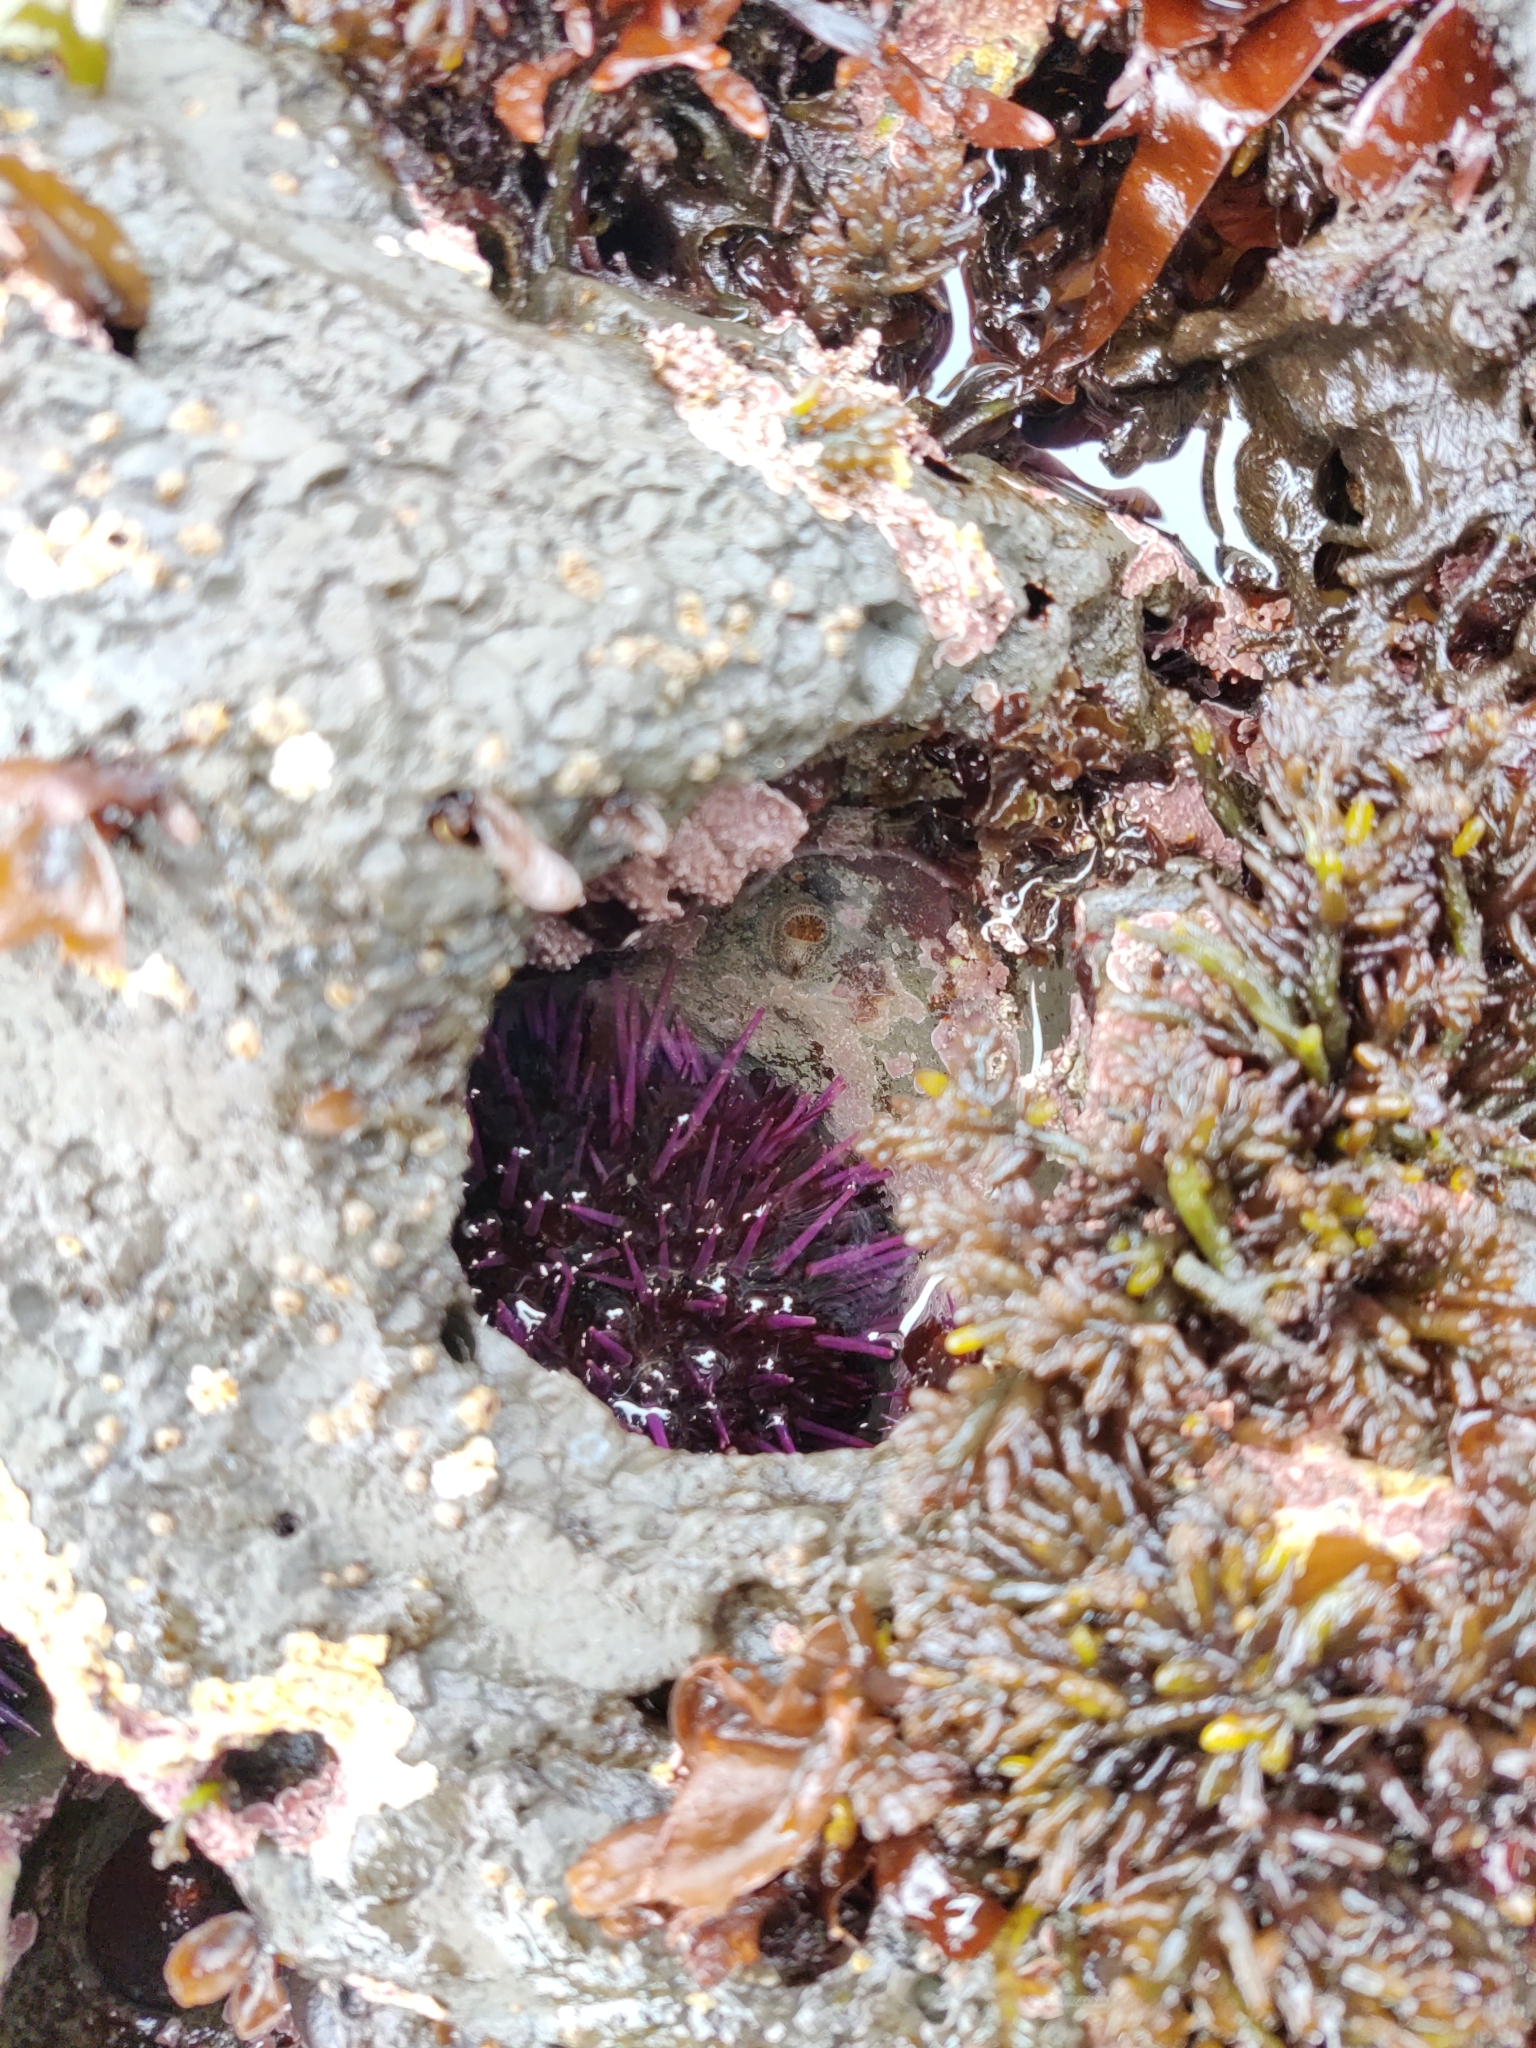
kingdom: Animalia
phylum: Echinodermata
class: Echinoidea
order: Camarodonta
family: Strongylocentrotidae
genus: Strongylocentrotus
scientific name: Strongylocentrotus purpuratus
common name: Purple sea urchin
